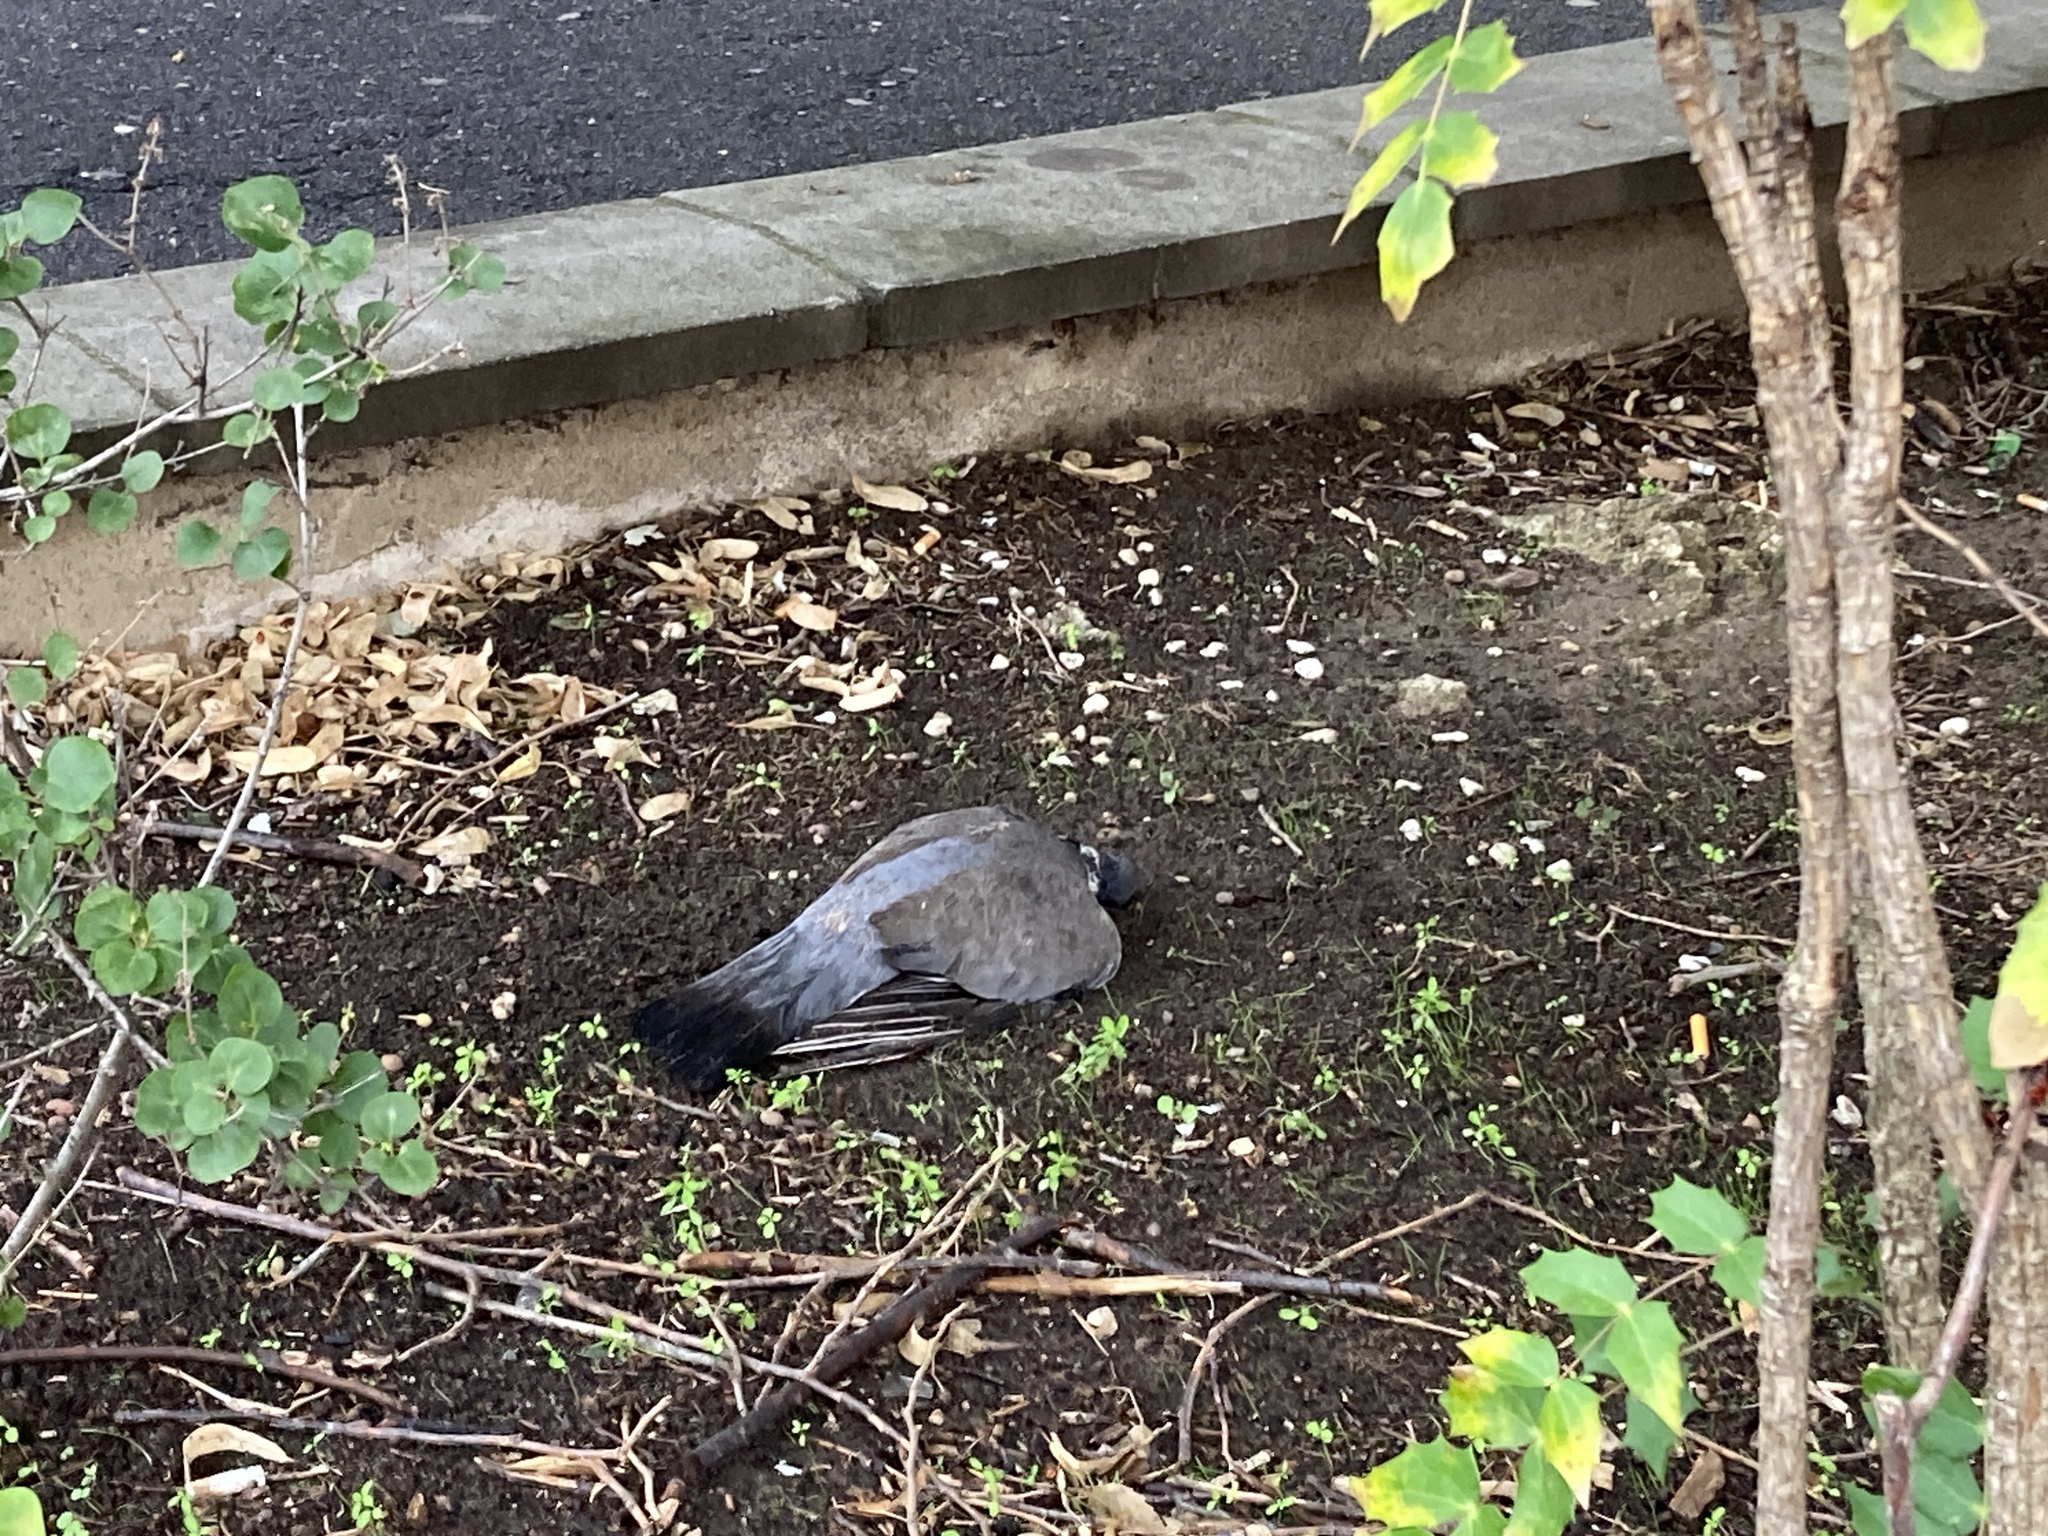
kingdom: Animalia
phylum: Chordata
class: Aves
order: Columbiformes
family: Columbidae
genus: Columba
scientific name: Columba palumbus
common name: Common wood pigeon
